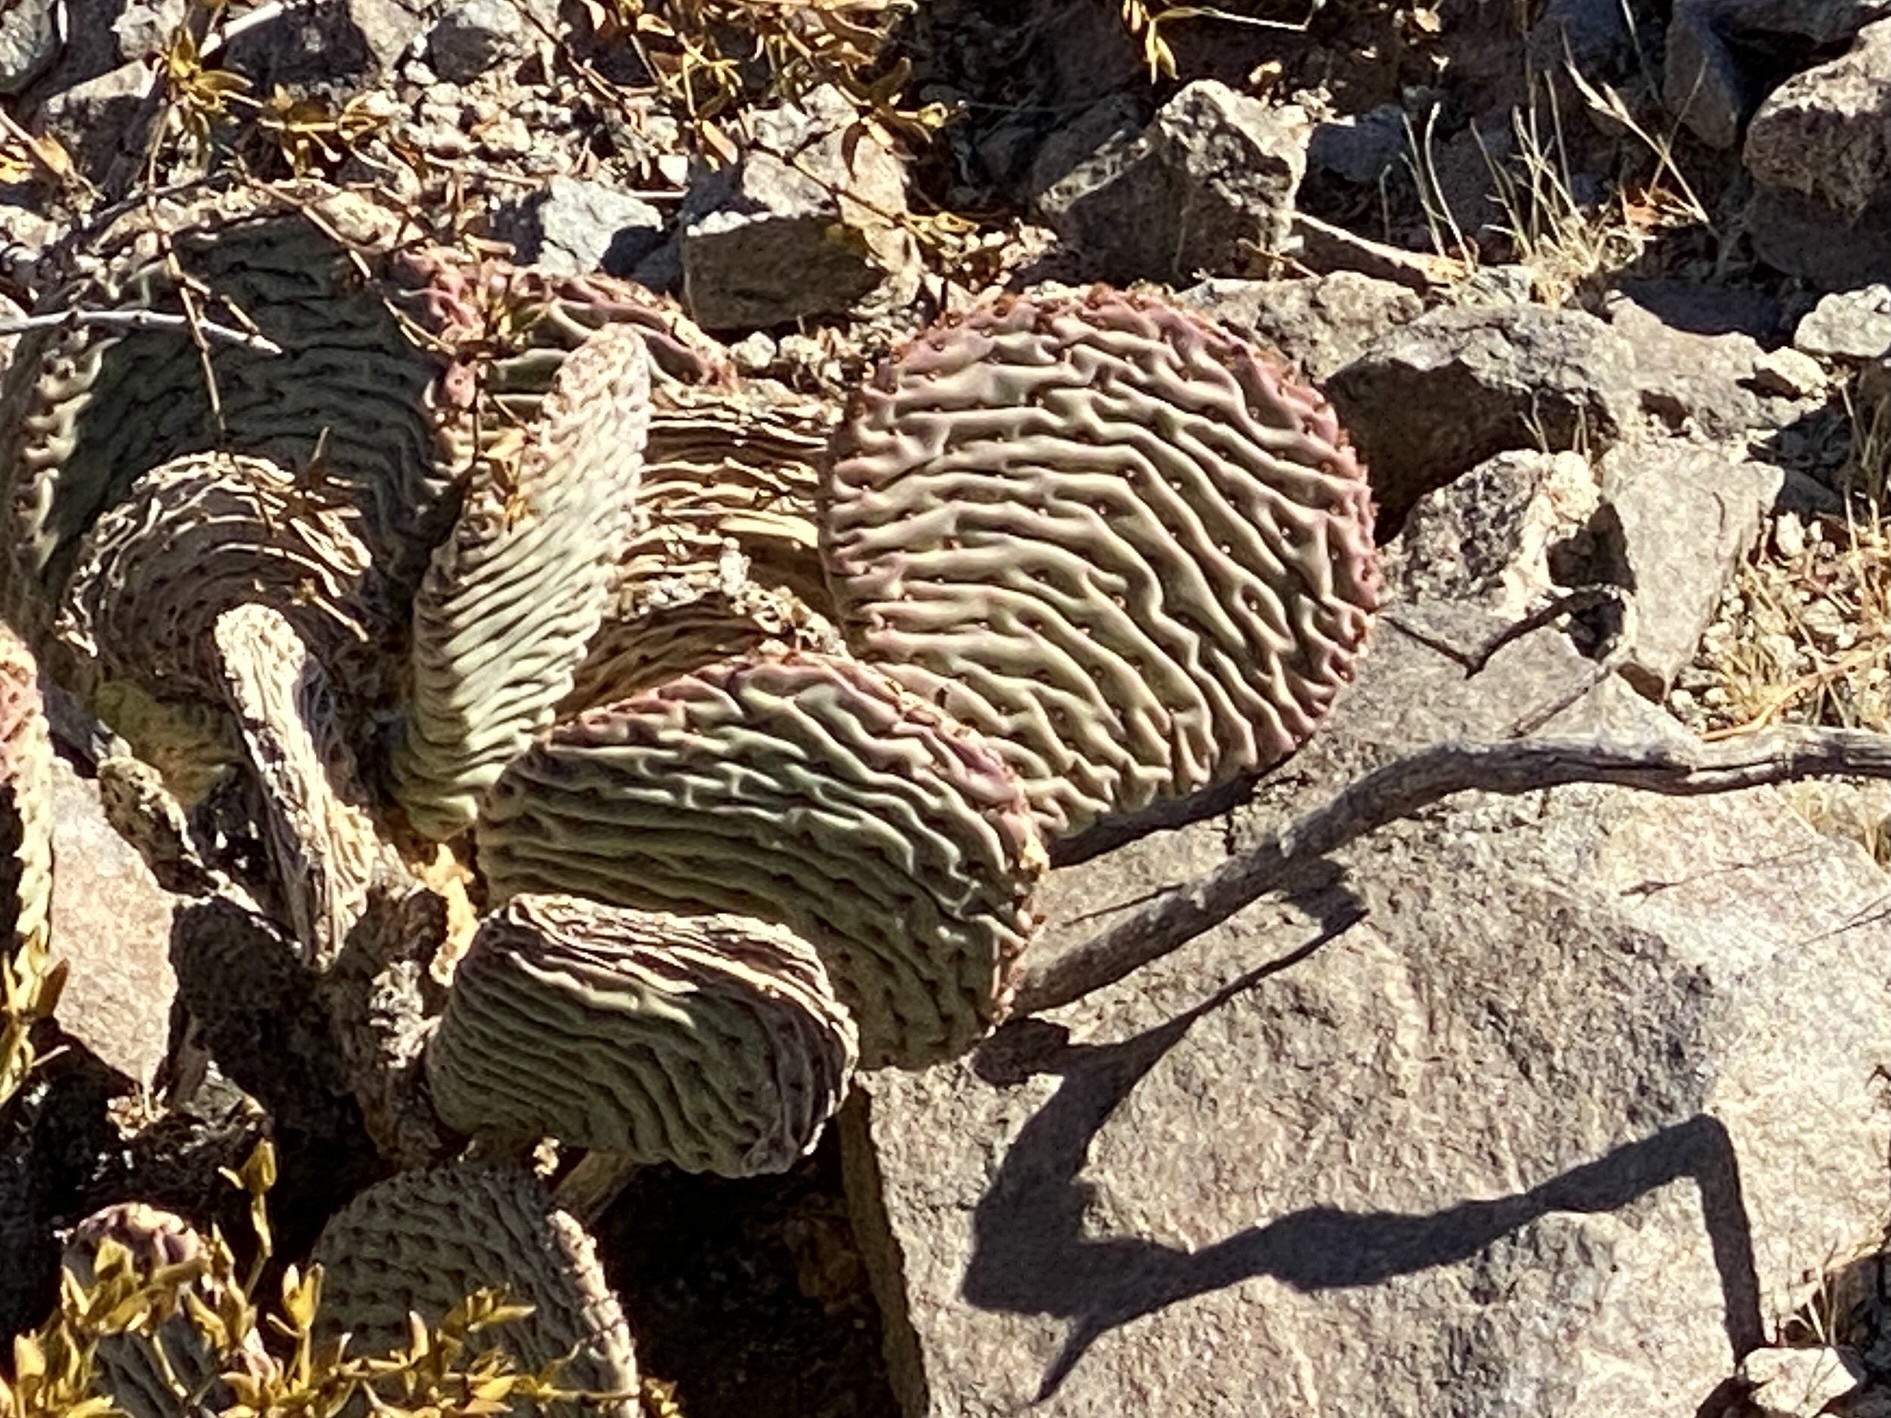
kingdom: Plantae
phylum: Tracheophyta
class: Magnoliopsida
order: Caryophyllales
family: Cactaceae
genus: Opuntia
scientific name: Opuntia basilaris
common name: Beavertail prickly-pear
